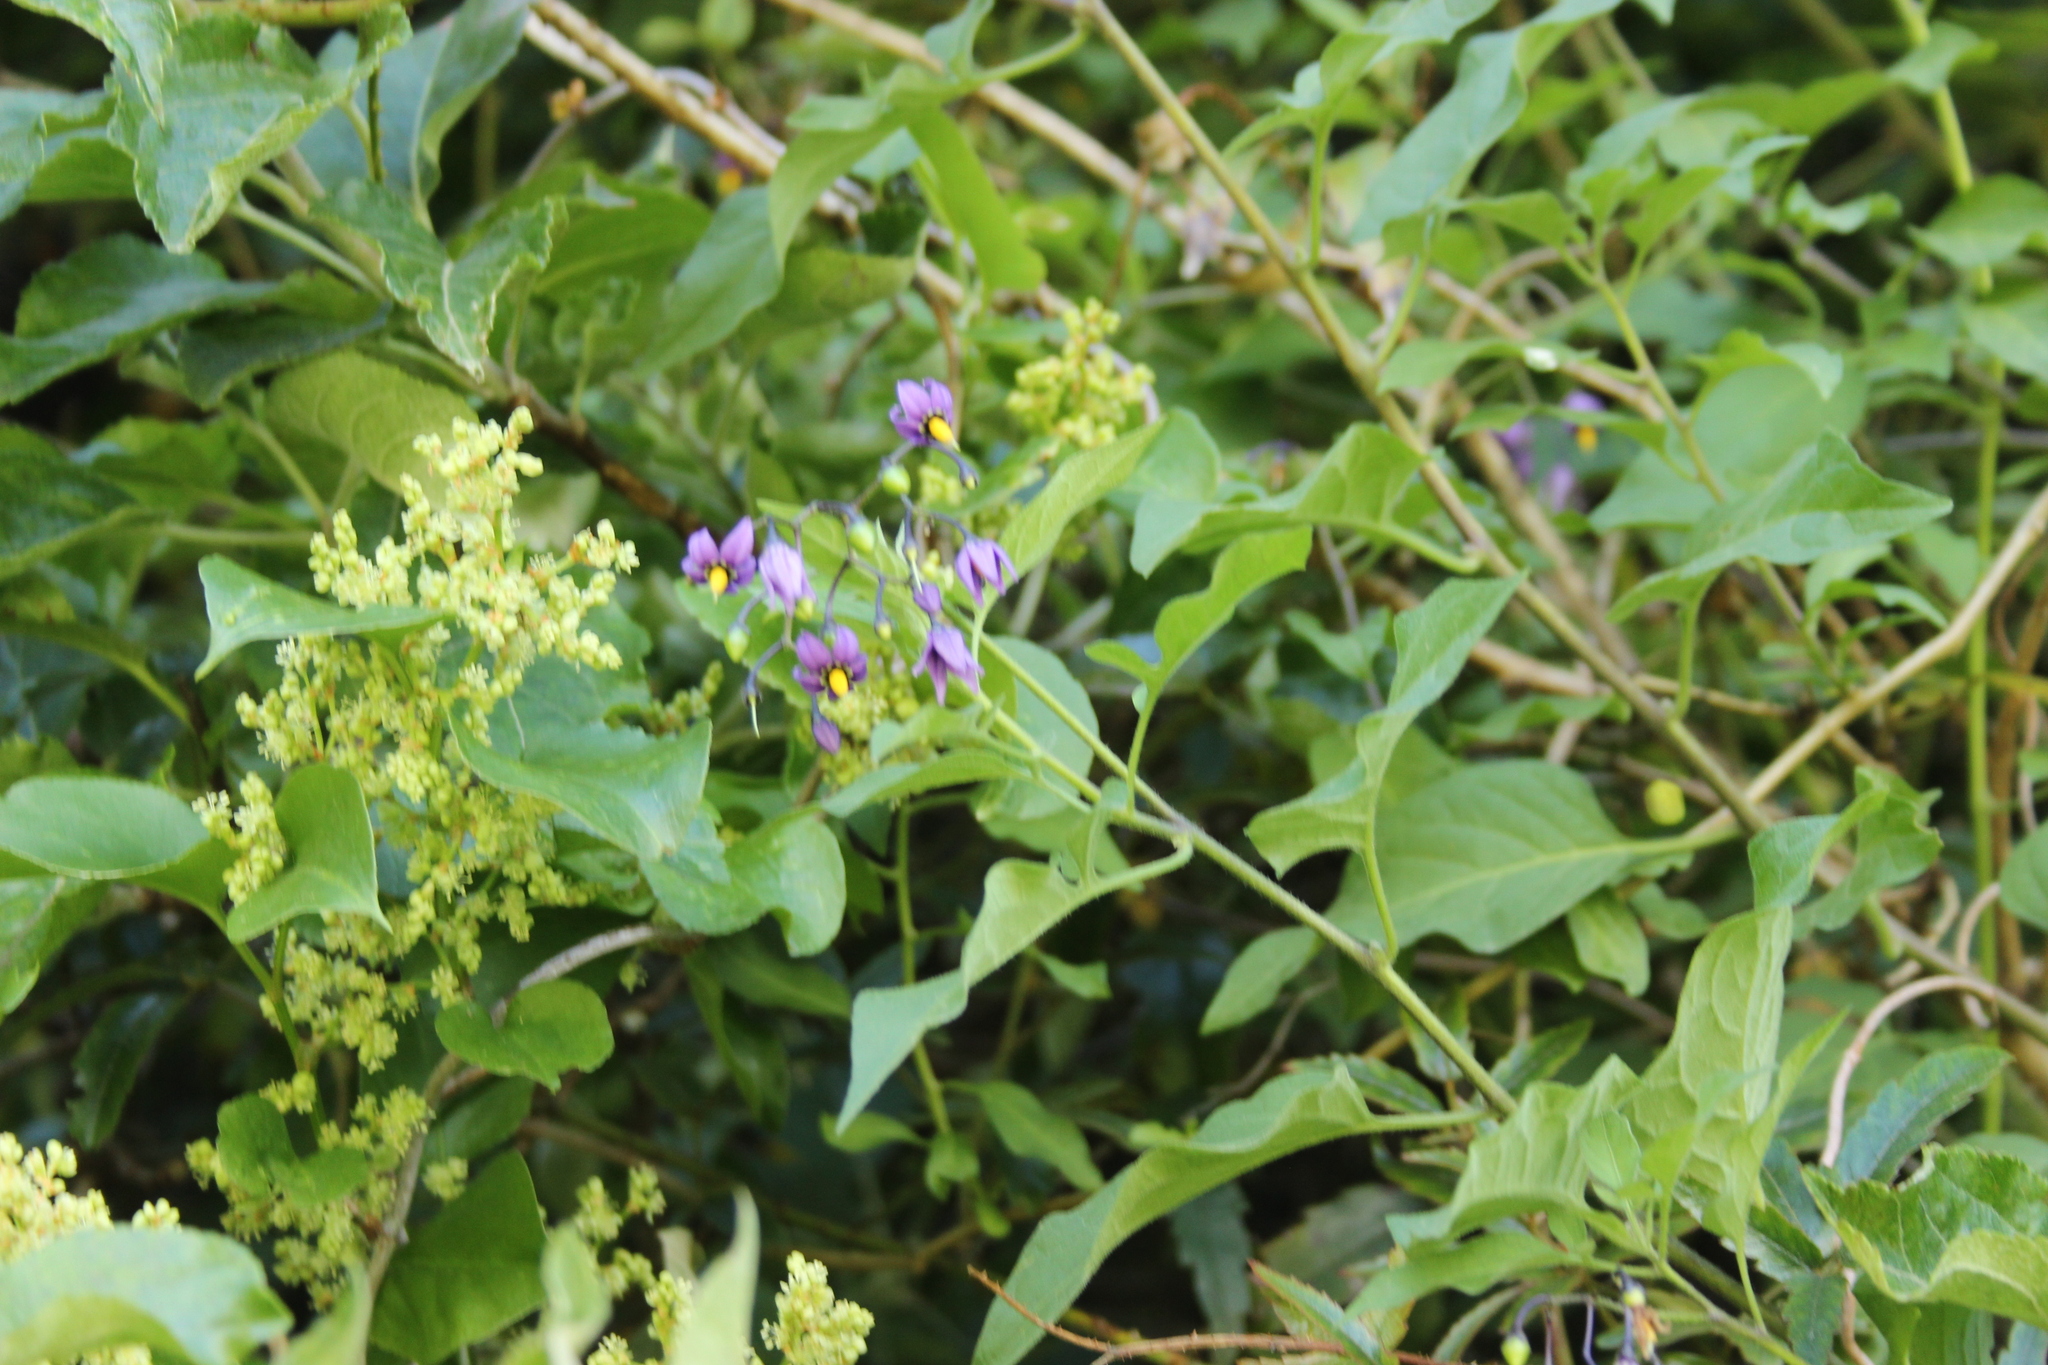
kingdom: Plantae
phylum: Tracheophyta
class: Magnoliopsida
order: Solanales
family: Solanaceae
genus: Solanum
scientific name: Solanum dulcamara
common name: Climbing nightshade
